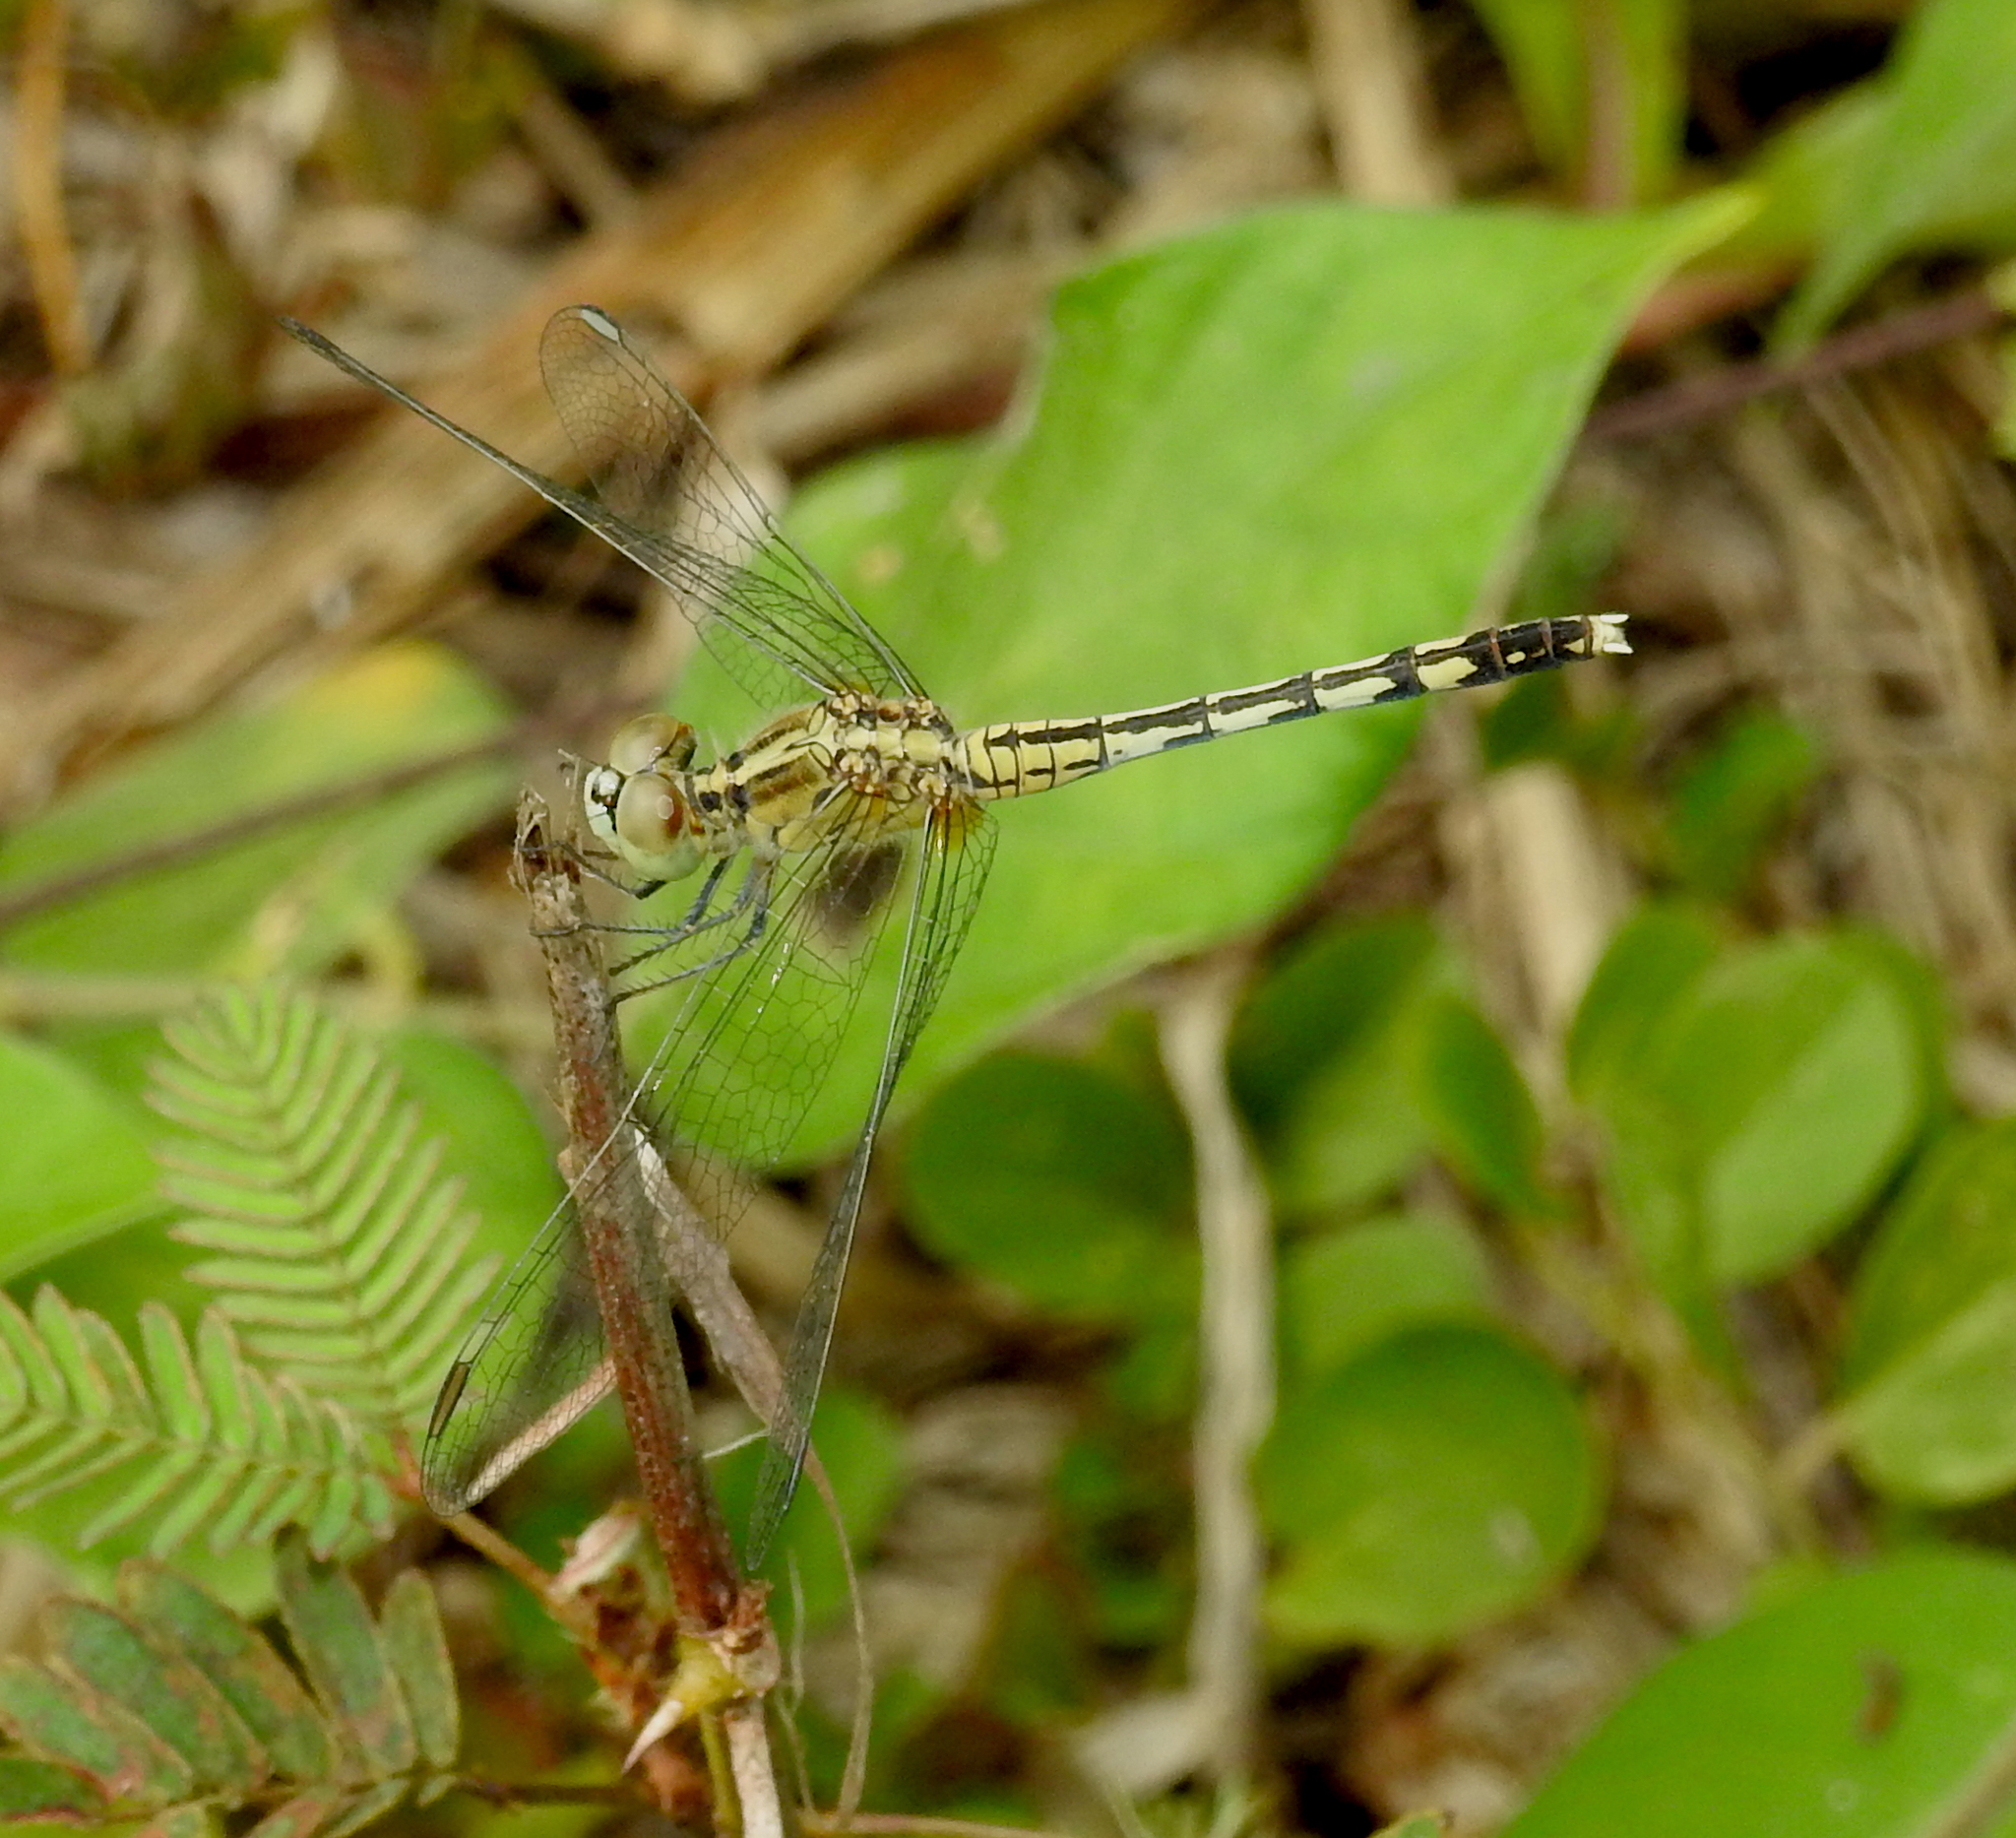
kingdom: Animalia
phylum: Arthropoda
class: Insecta
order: Odonata
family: Libellulidae
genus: Diplacodes
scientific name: Diplacodes trivialis
